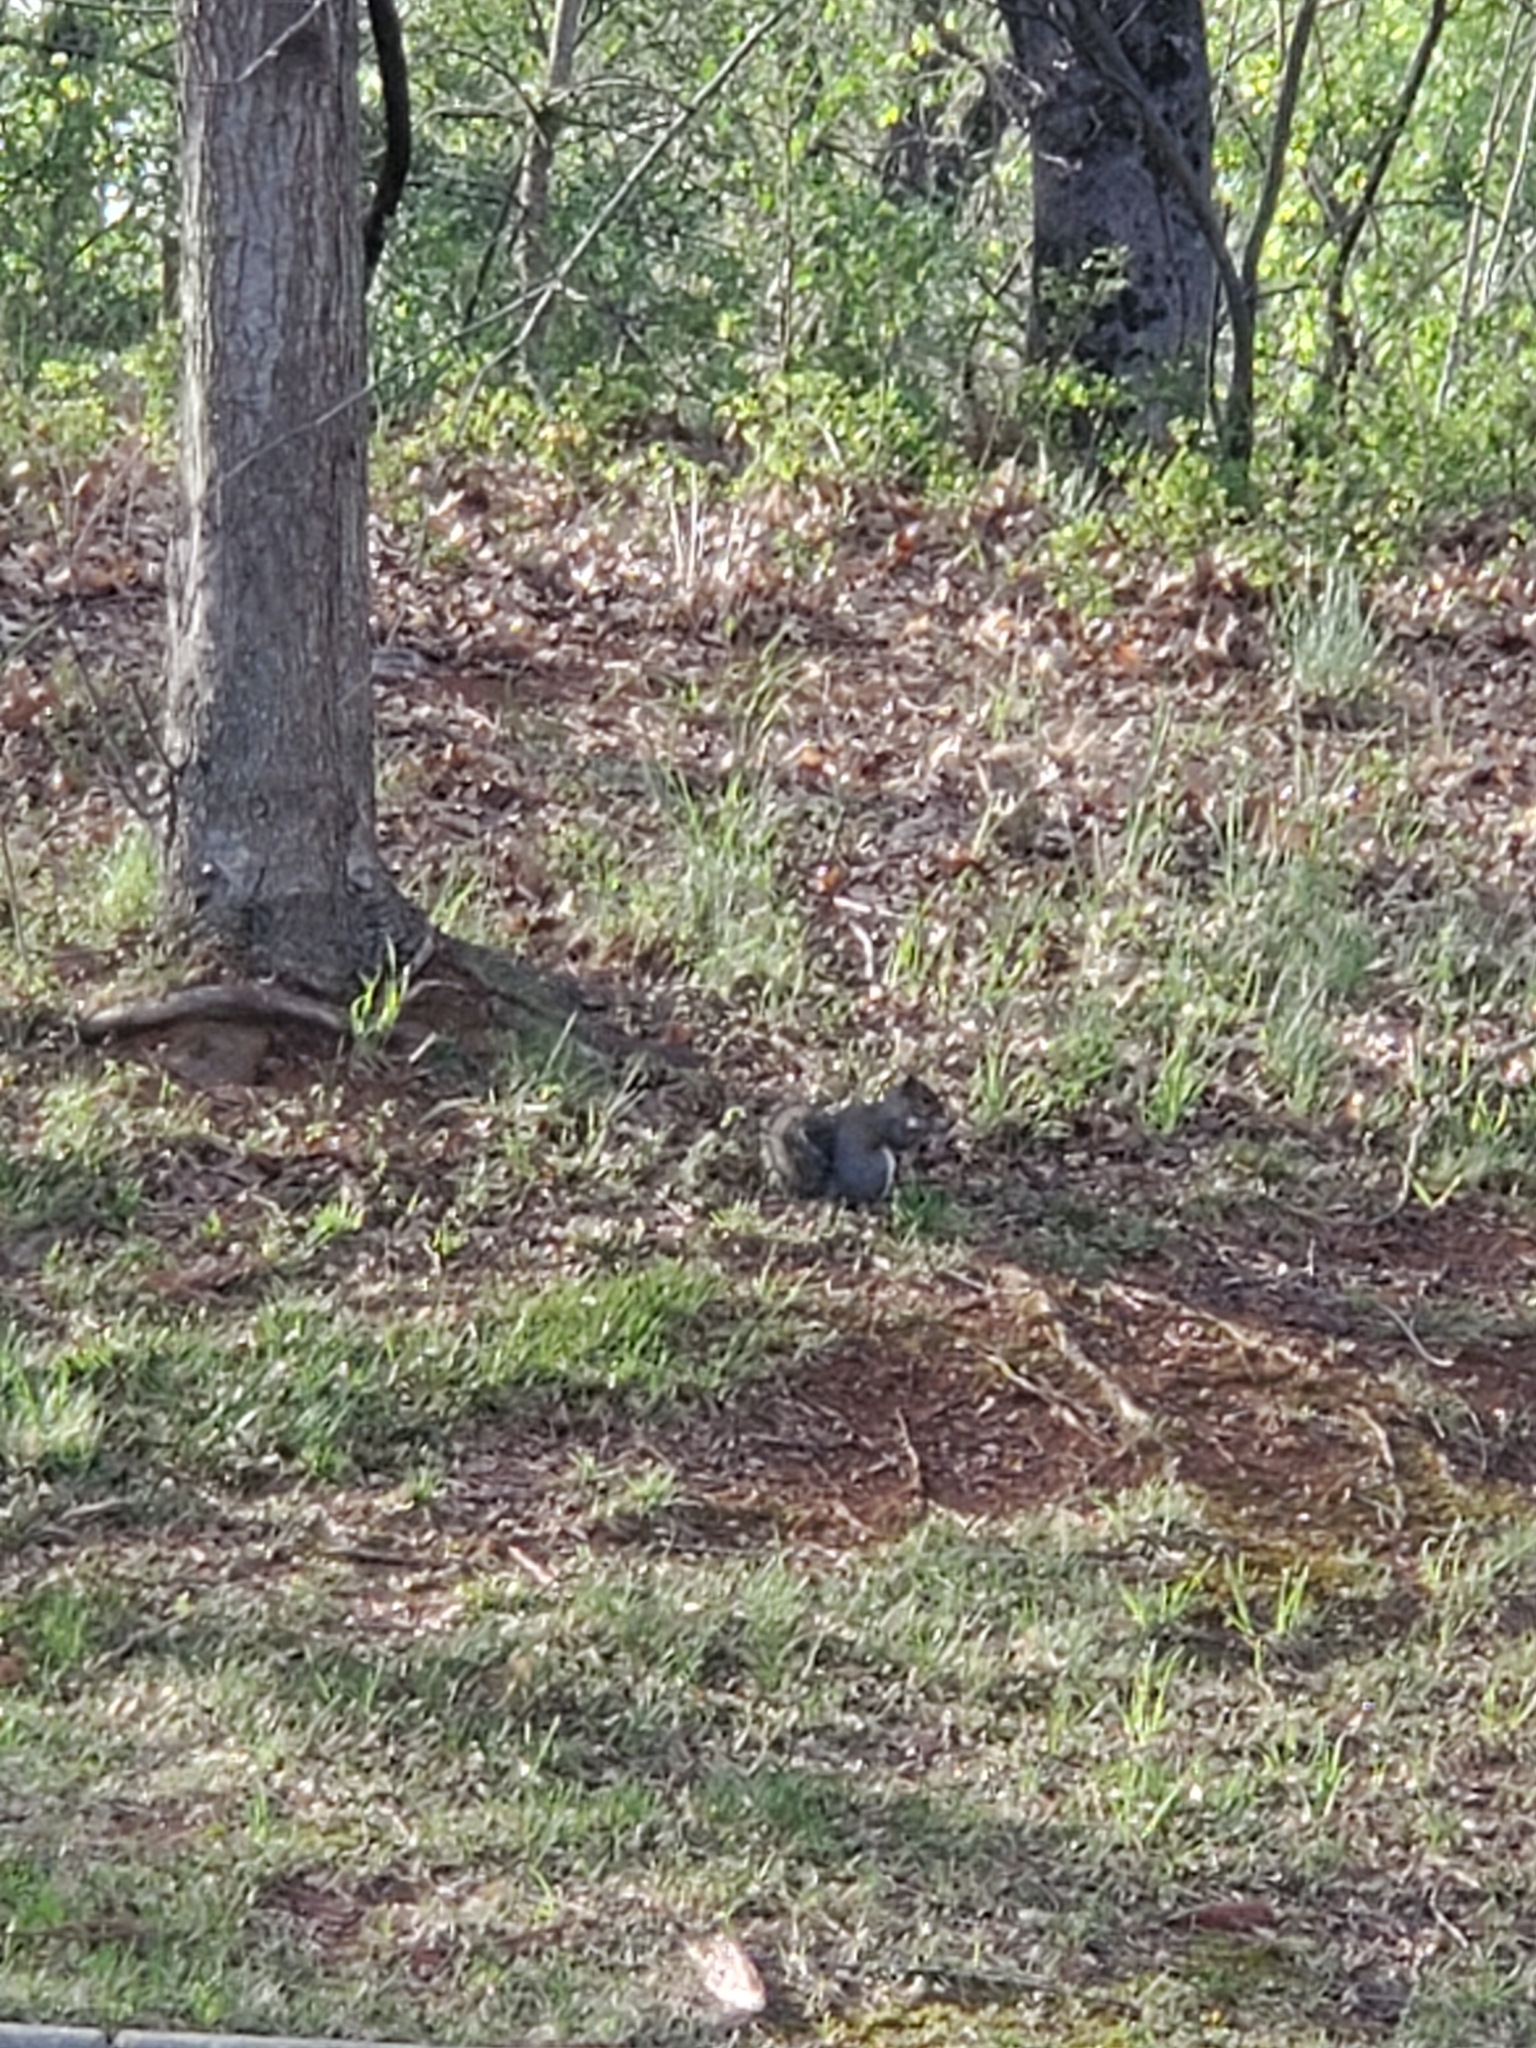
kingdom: Animalia
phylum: Chordata
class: Mammalia
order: Rodentia
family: Sciuridae
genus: Sciurus
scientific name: Sciurus carolinensis
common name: Eastern gray squirrel
